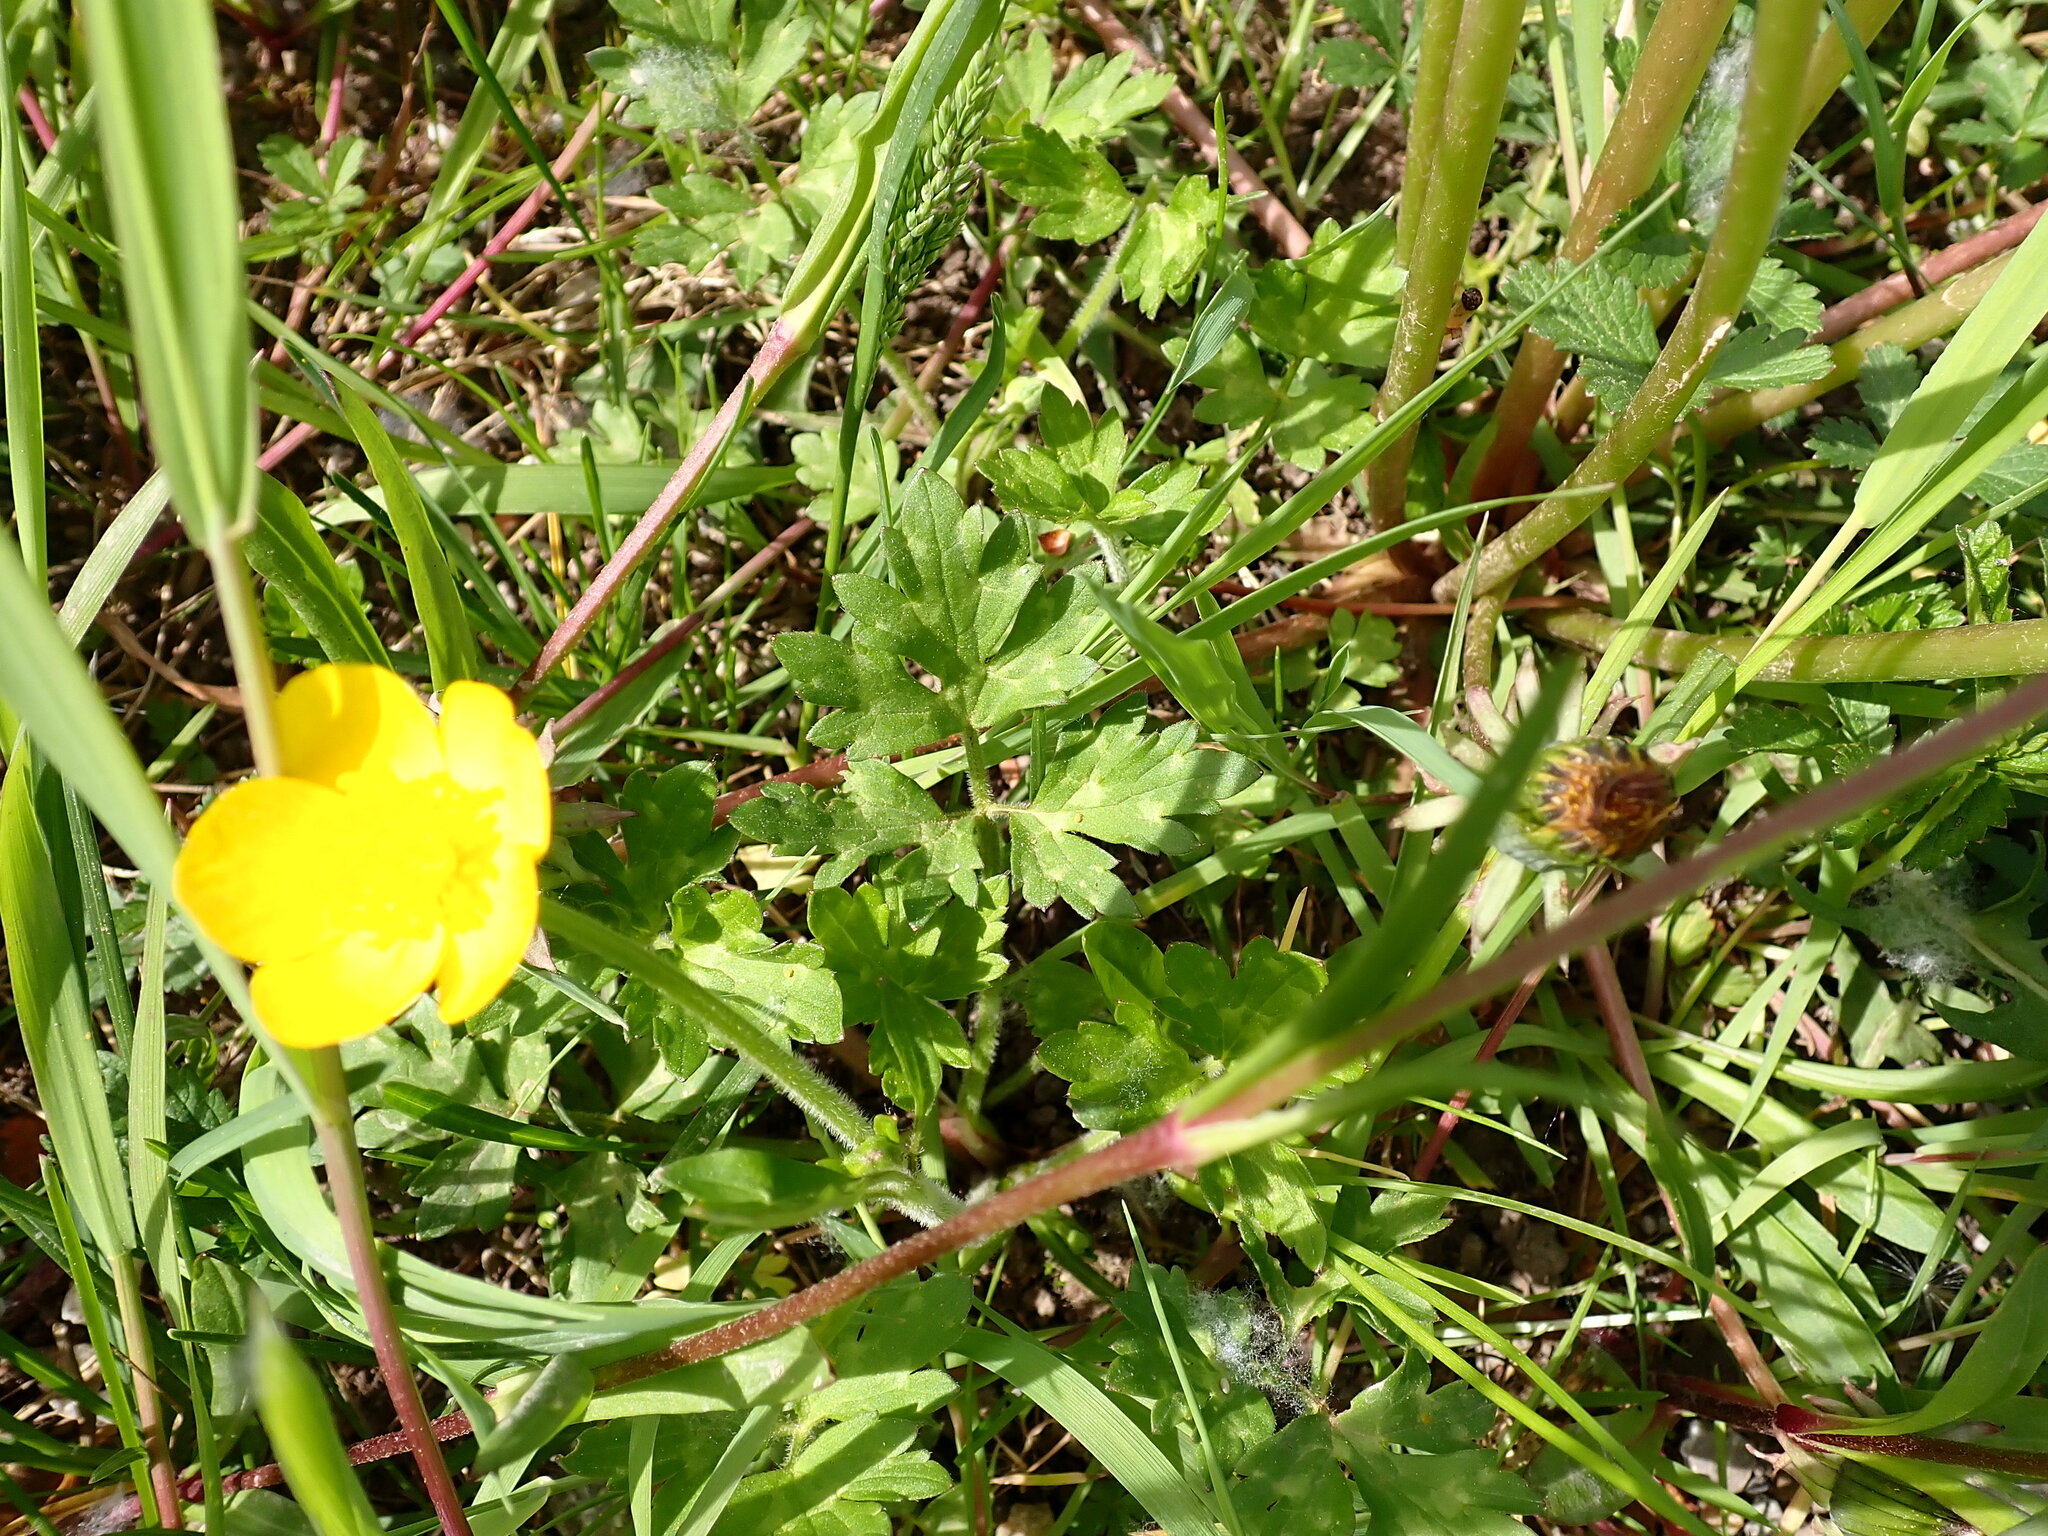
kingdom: Plantae
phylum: Tracheophyta
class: Magnoliopsida
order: Ranunculales
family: Ranunculaceae
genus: Ranunculus
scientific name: Ranunculus repens
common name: Creeping buttercup
